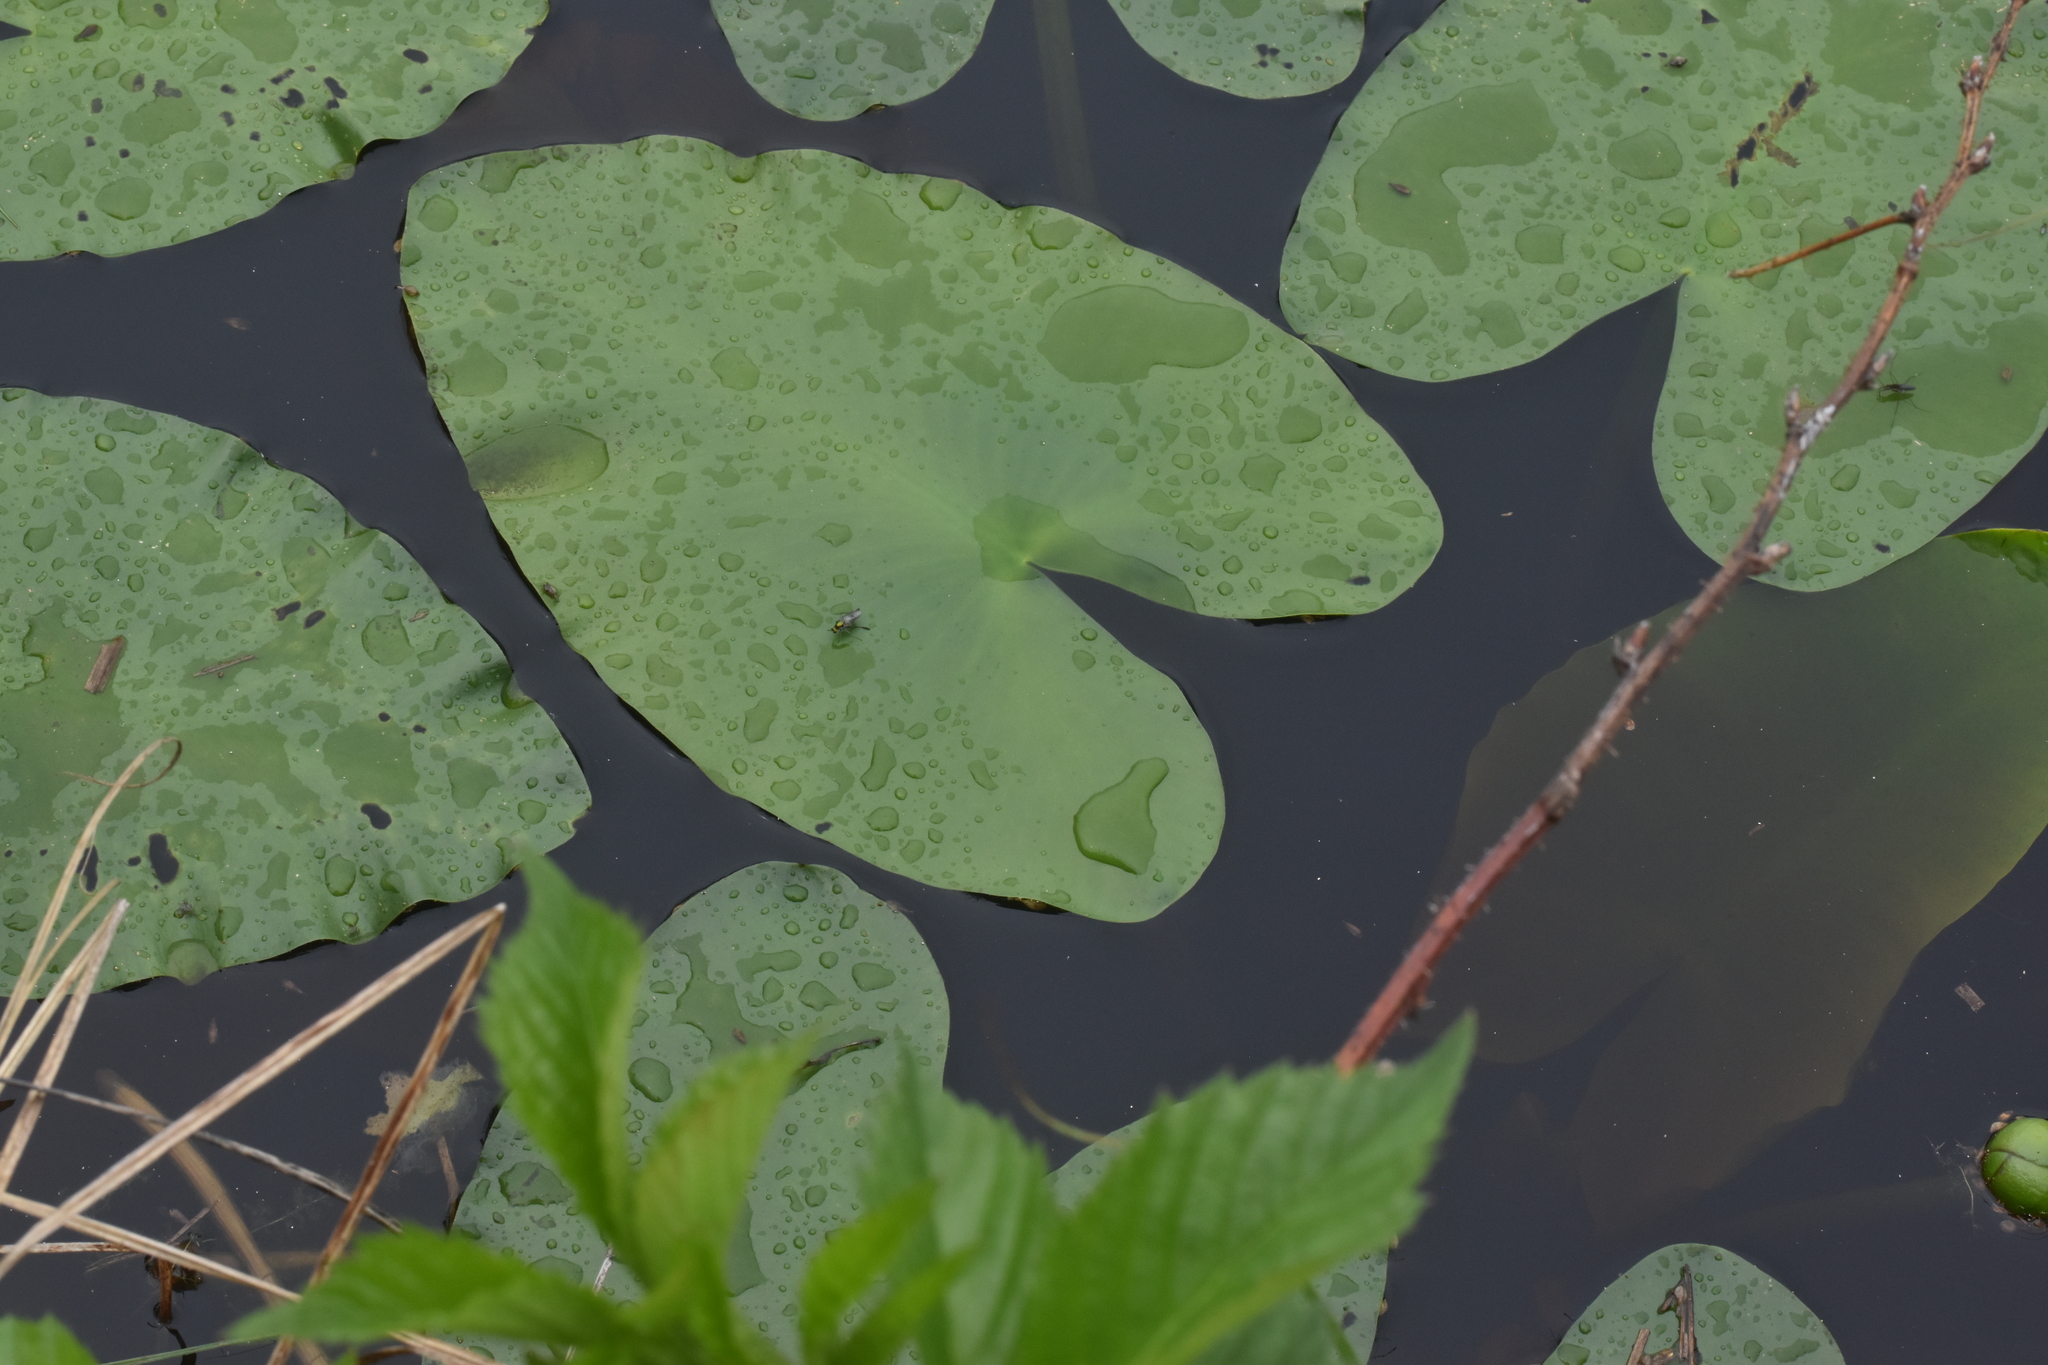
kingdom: Plantae
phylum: Tracheophyta
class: Magnoliopsida
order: Nymphaeales
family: Nymphaeaceae
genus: Nuphar
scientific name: Nuphar variegata
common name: Beaver-root
